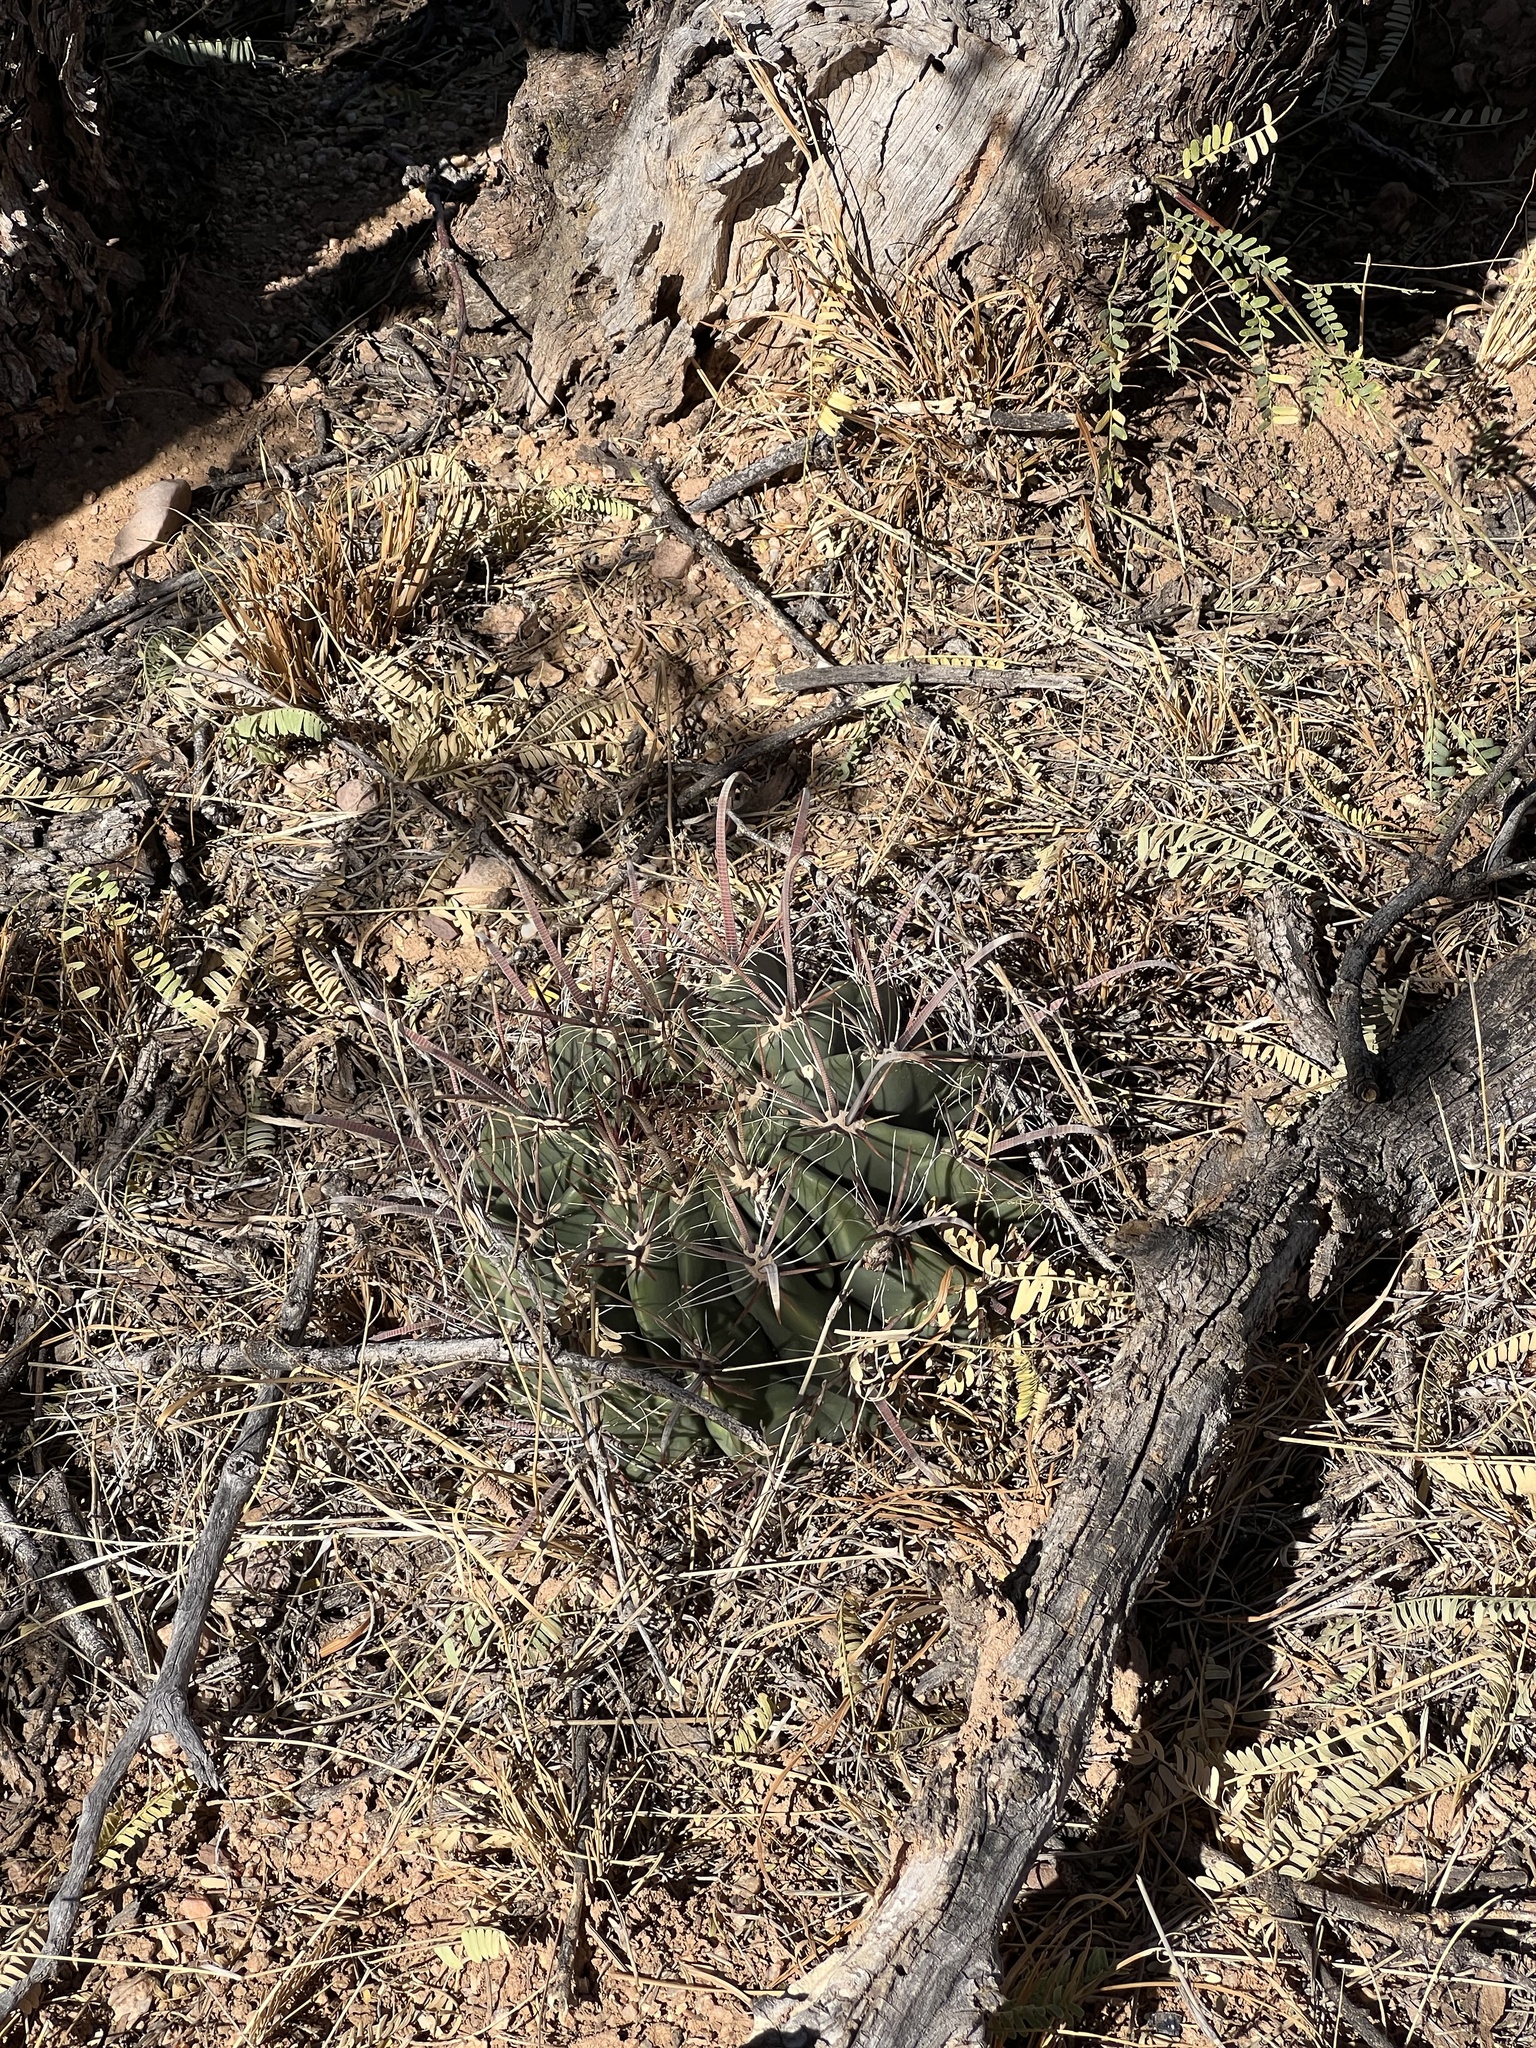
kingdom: Plantae
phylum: Tracheophyta
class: Magnoliopsida
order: Caryophyllales
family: Cactaceae
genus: Ferocactus
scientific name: Ferocactus wislizeni
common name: Candy barrel cactus
